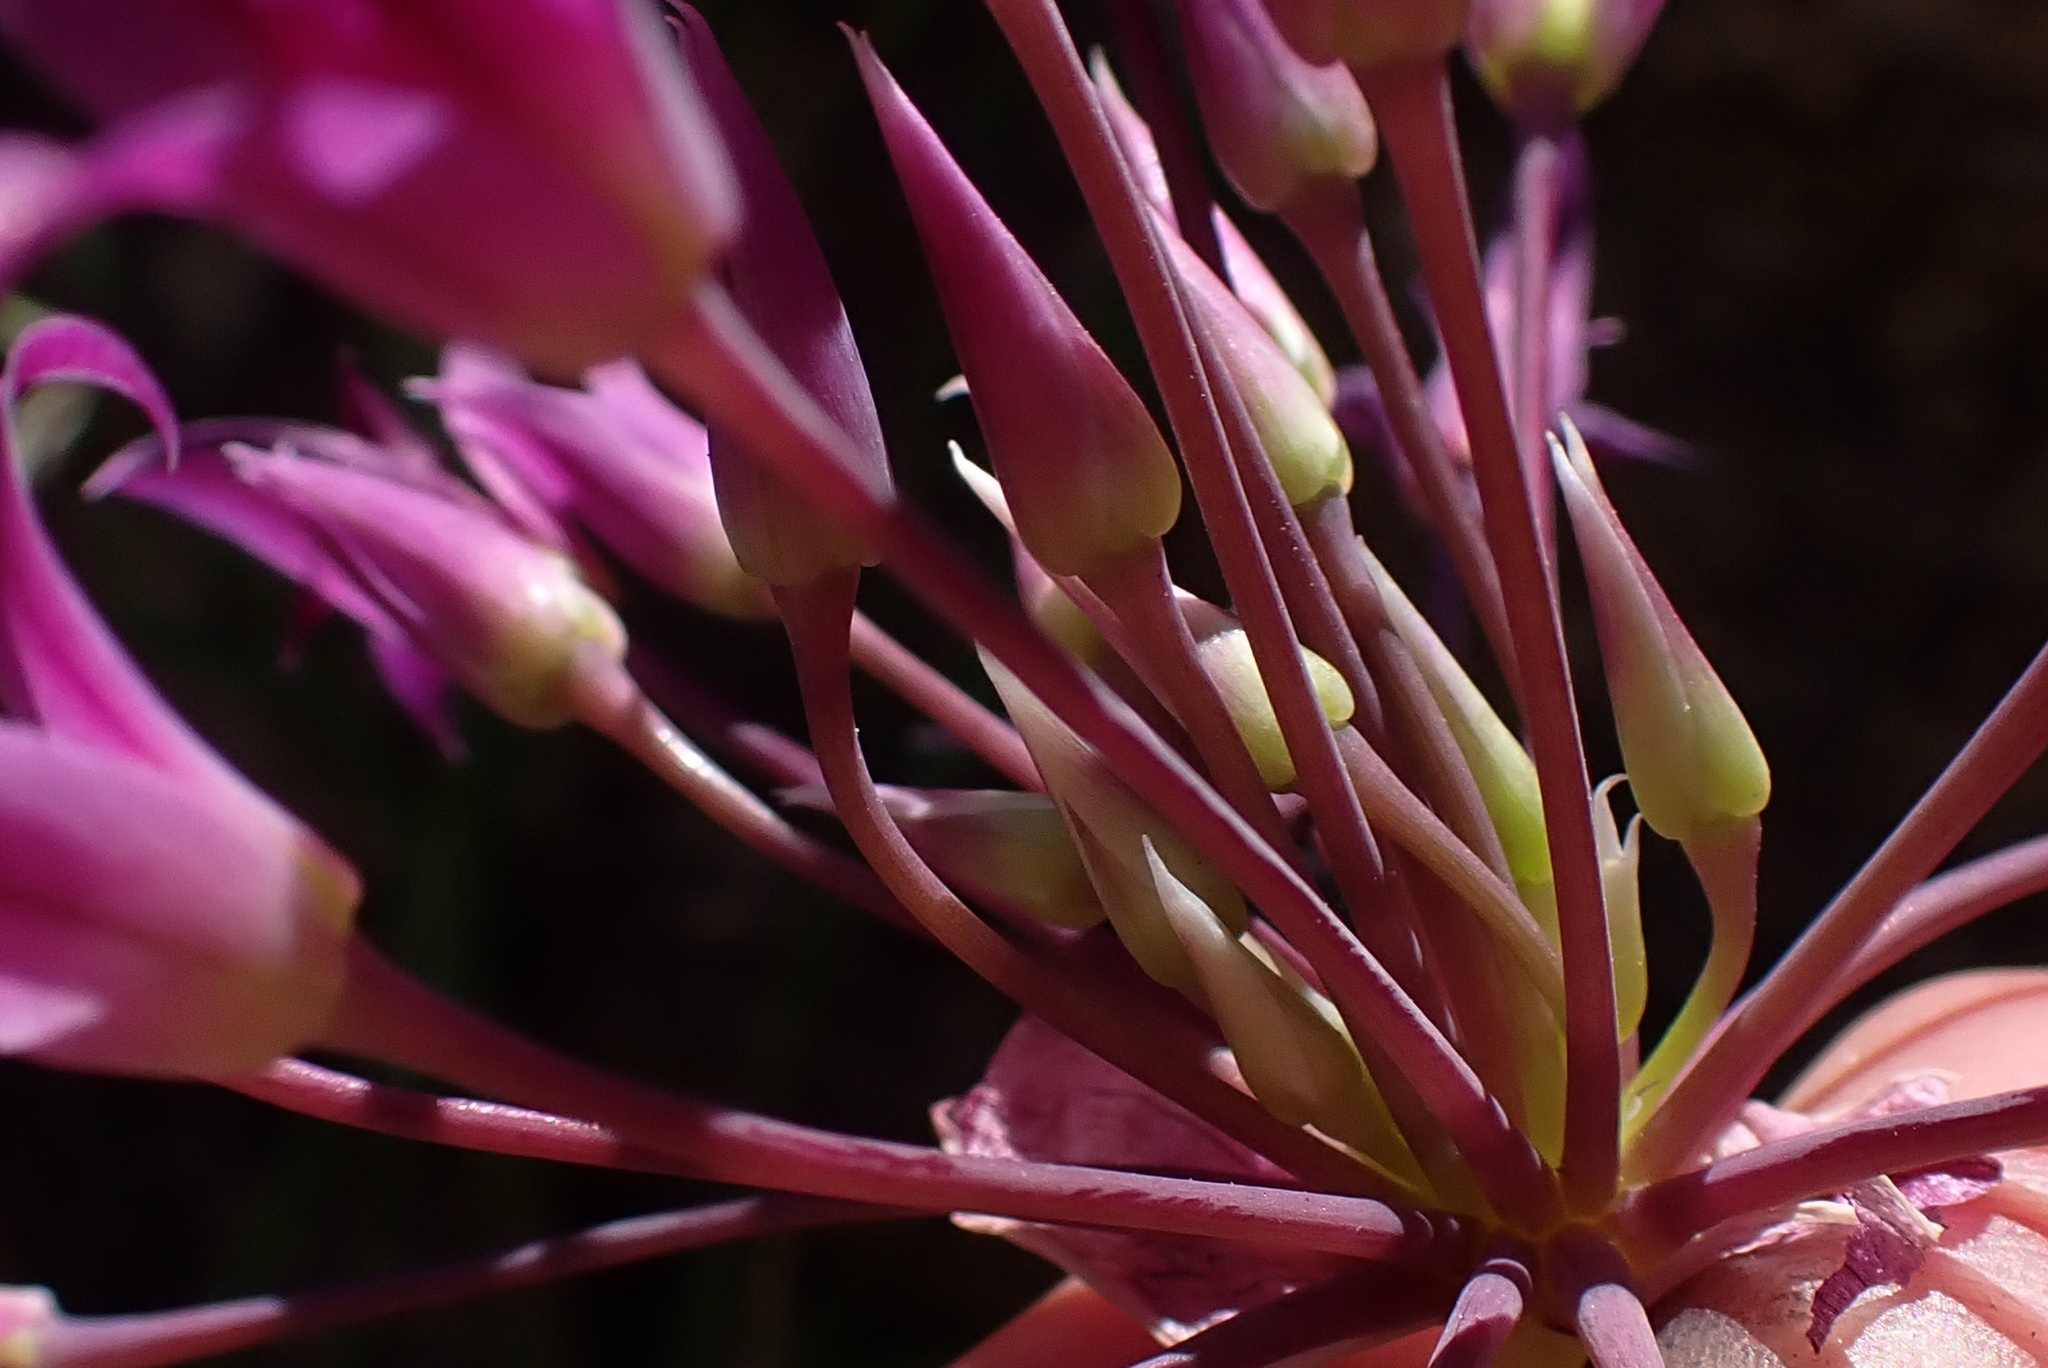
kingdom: Plantae
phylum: Tracheophyta
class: Liliopsida
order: Asparagales
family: Amaryllidaceae
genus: Allium
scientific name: Allium peninsulare
